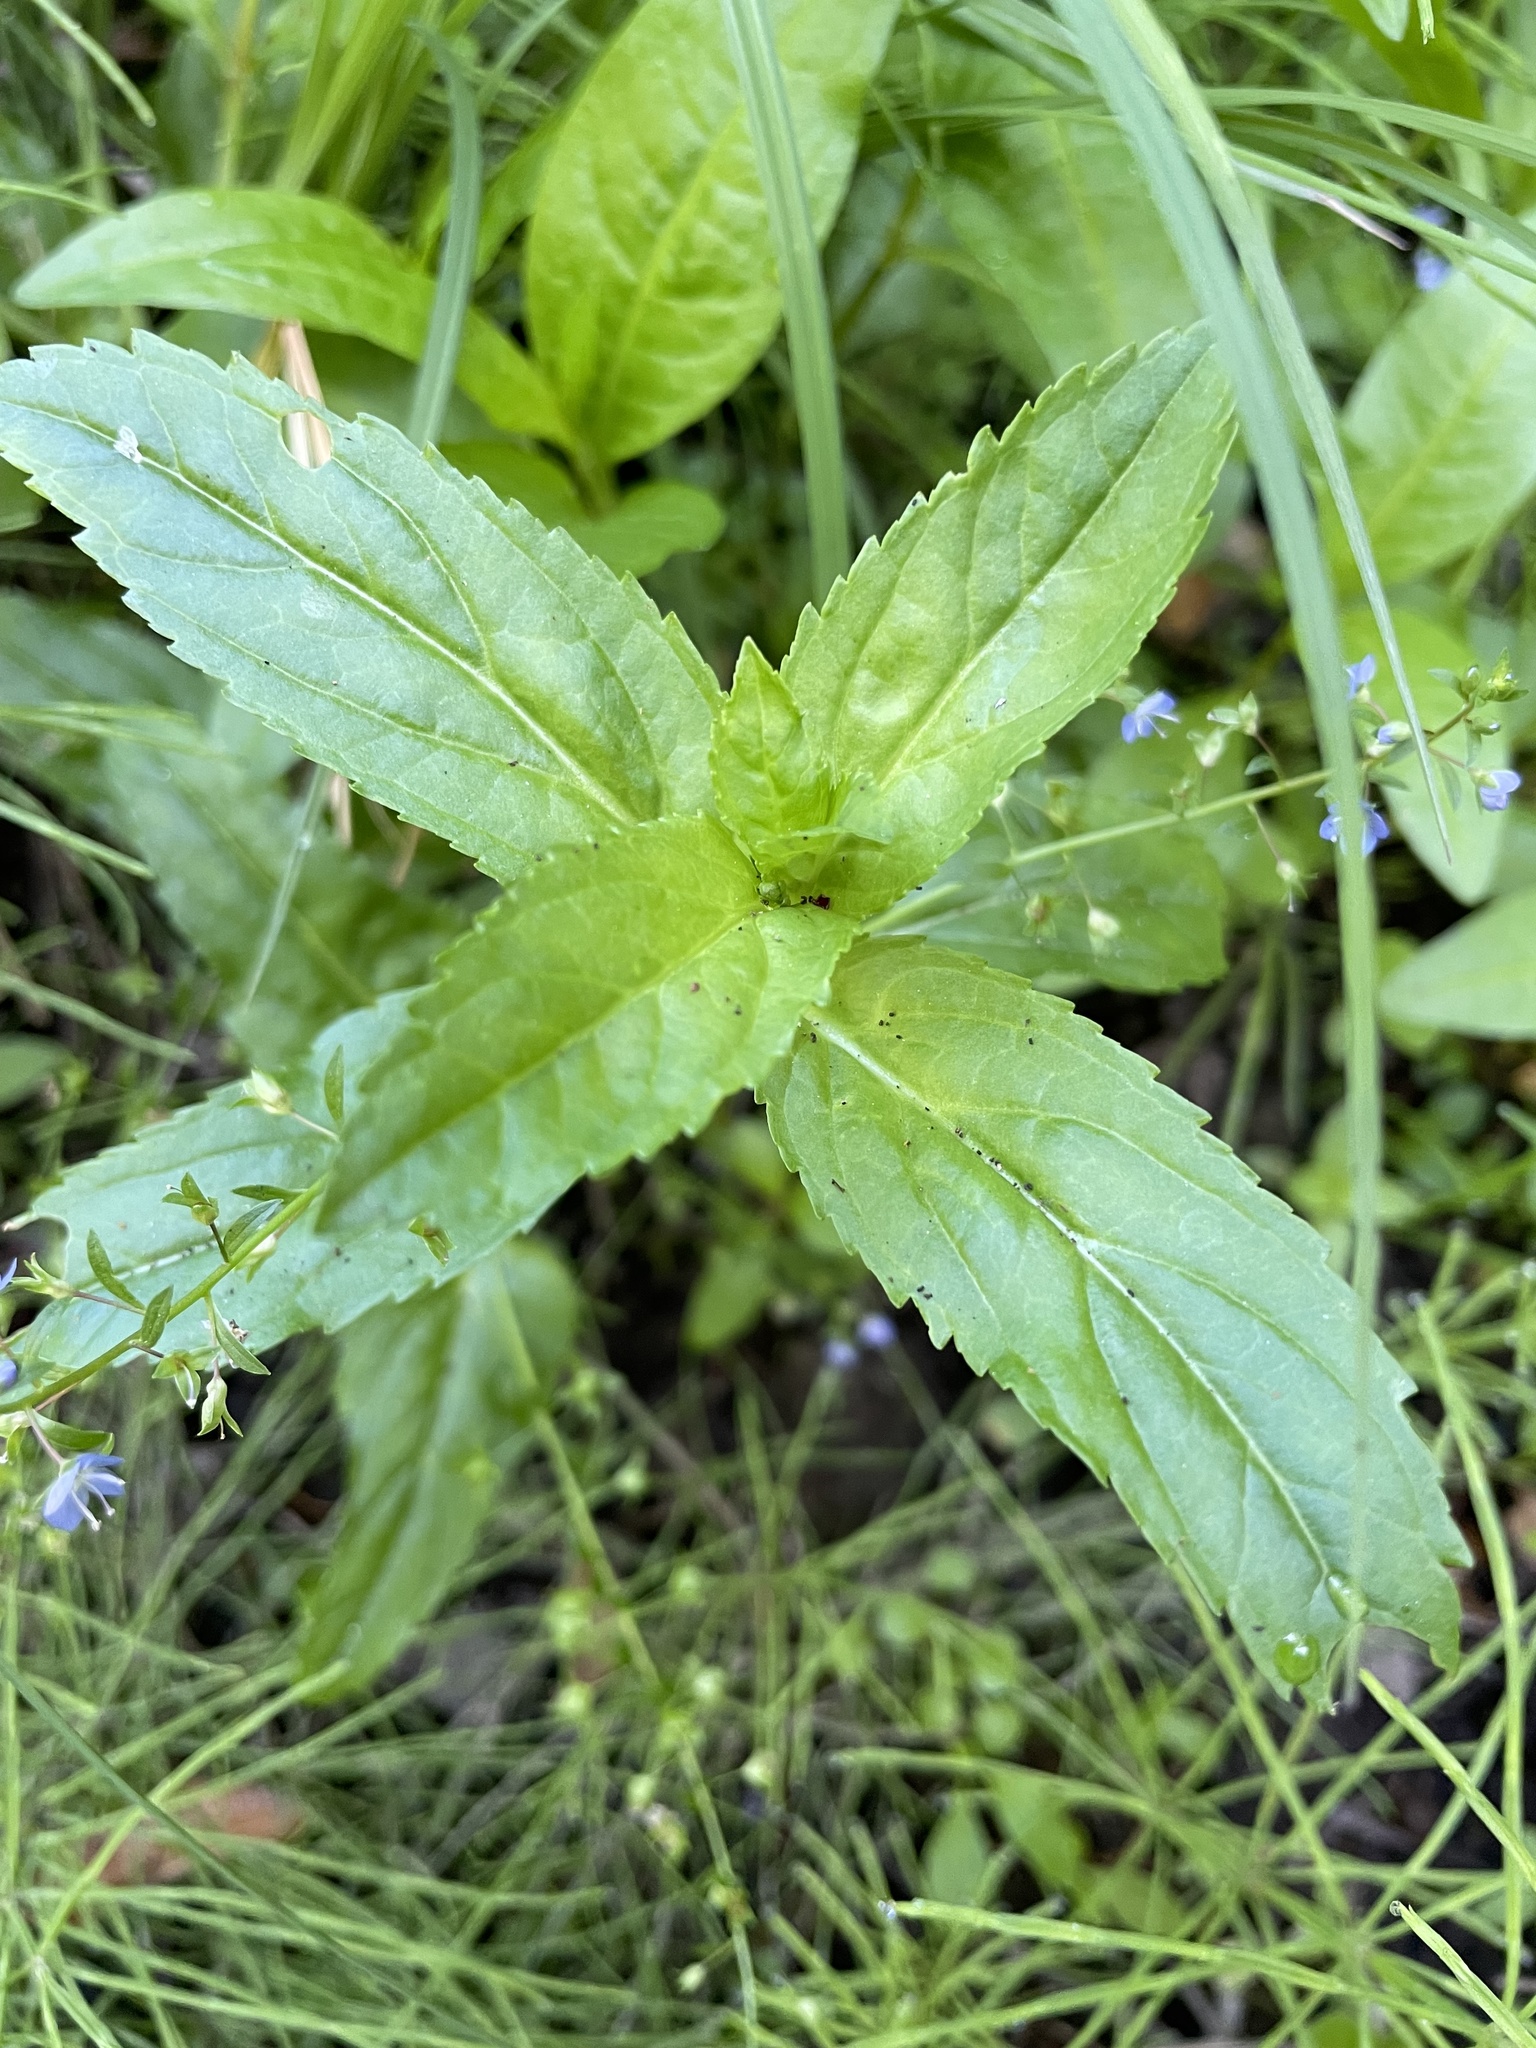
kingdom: Plantae
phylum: Tracheophyta
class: Magnoliopsida
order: Lamiales
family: Plantaginaceae
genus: Veronica
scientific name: Veronica americana
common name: American brooklime
